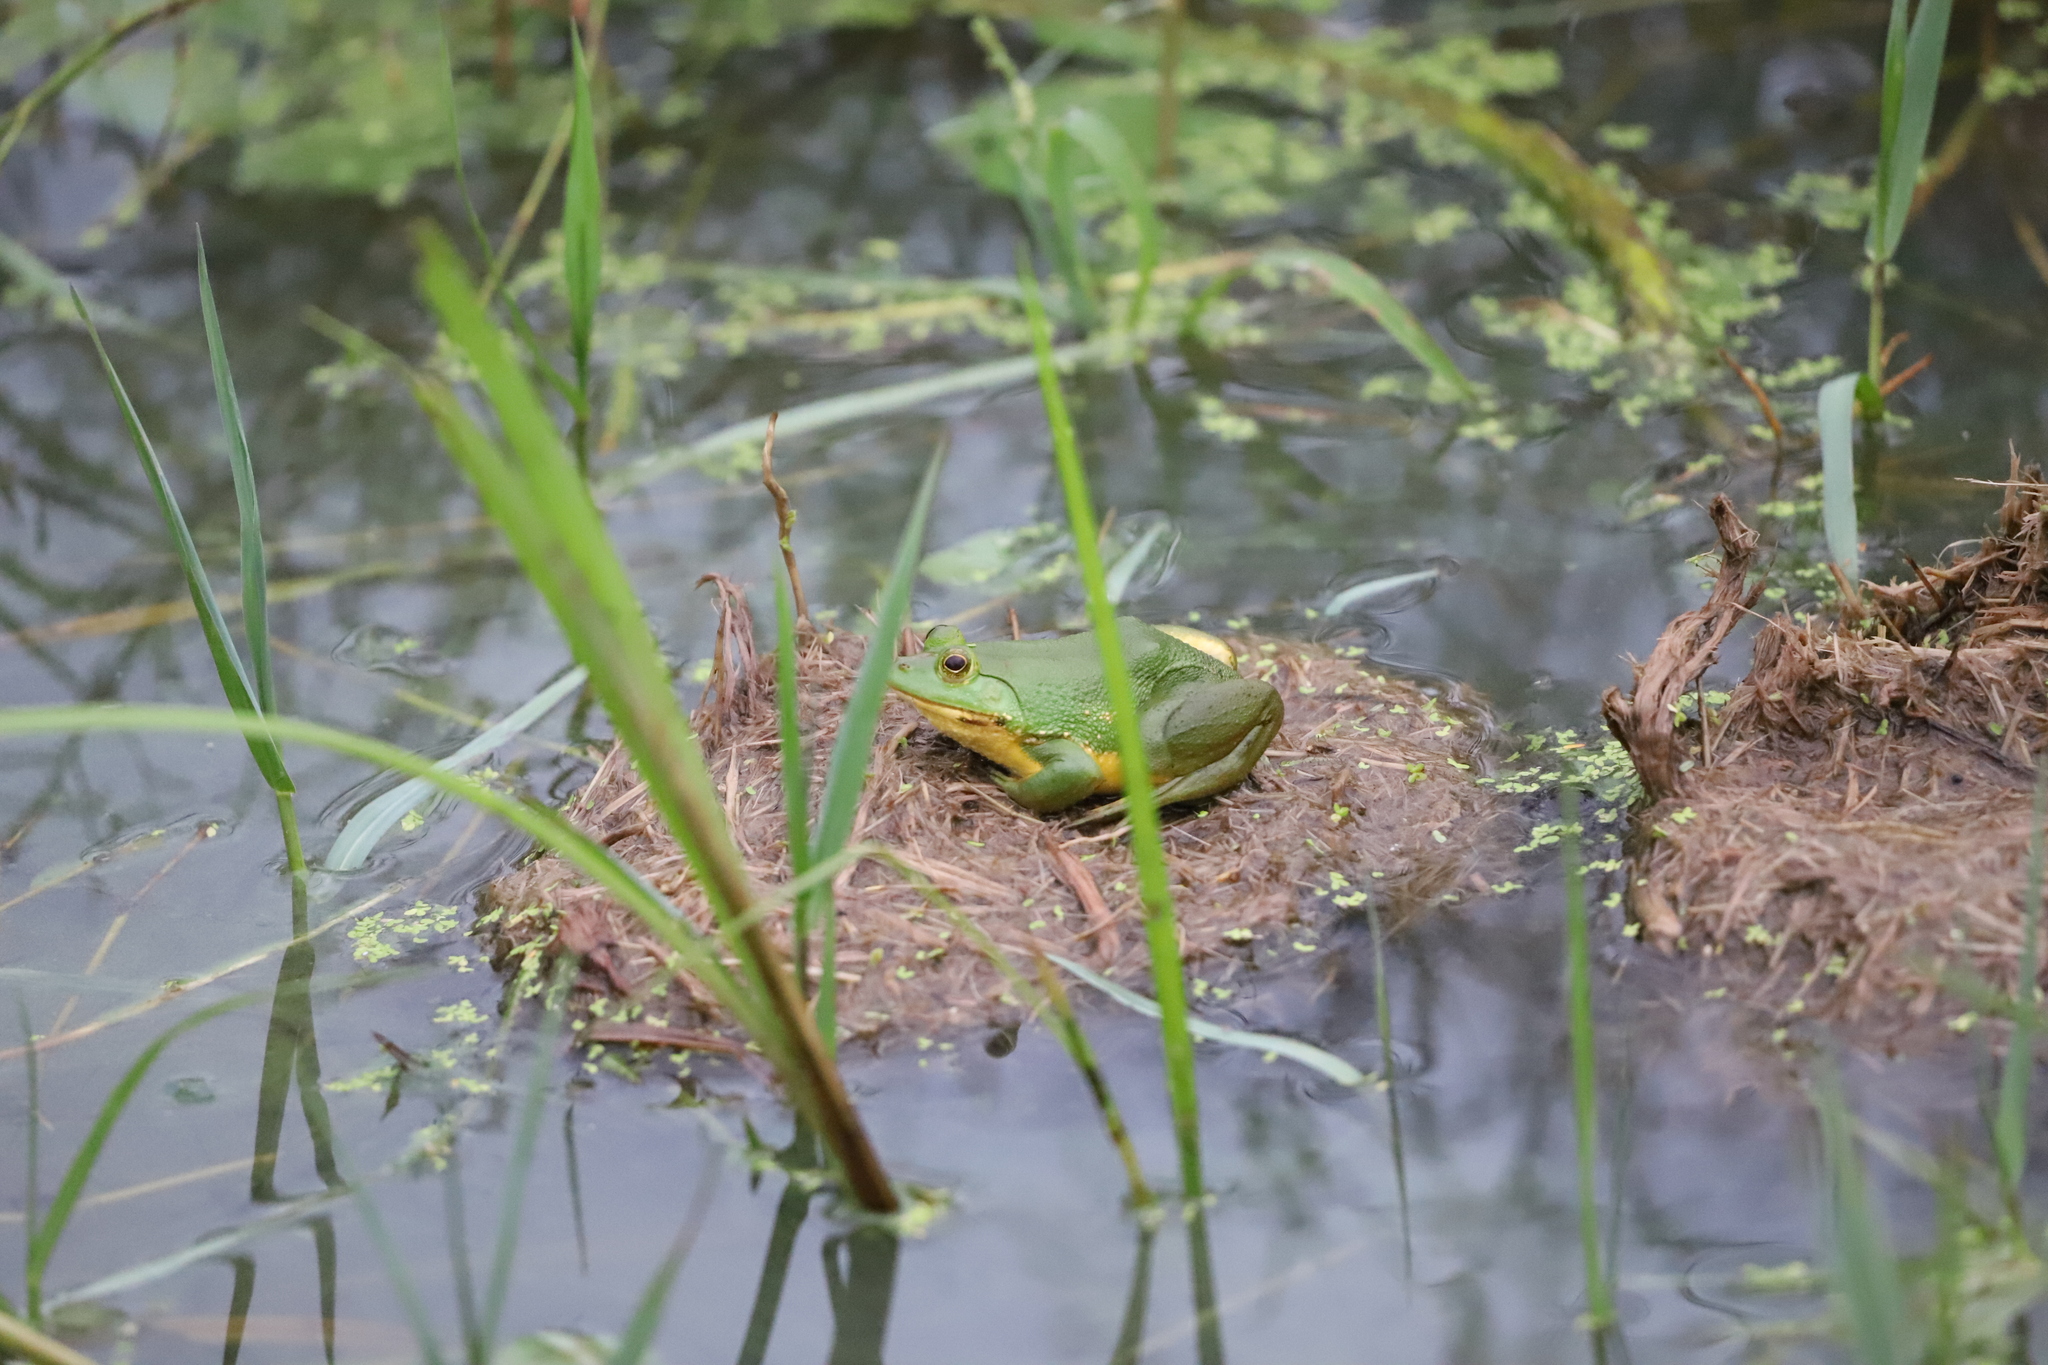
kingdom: Animalia
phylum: Chordata
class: Amphibia
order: Anura
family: Dicroglossidae
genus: Euphlyctis
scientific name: Euphlyctis hexadactylus
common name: Indian green frog
